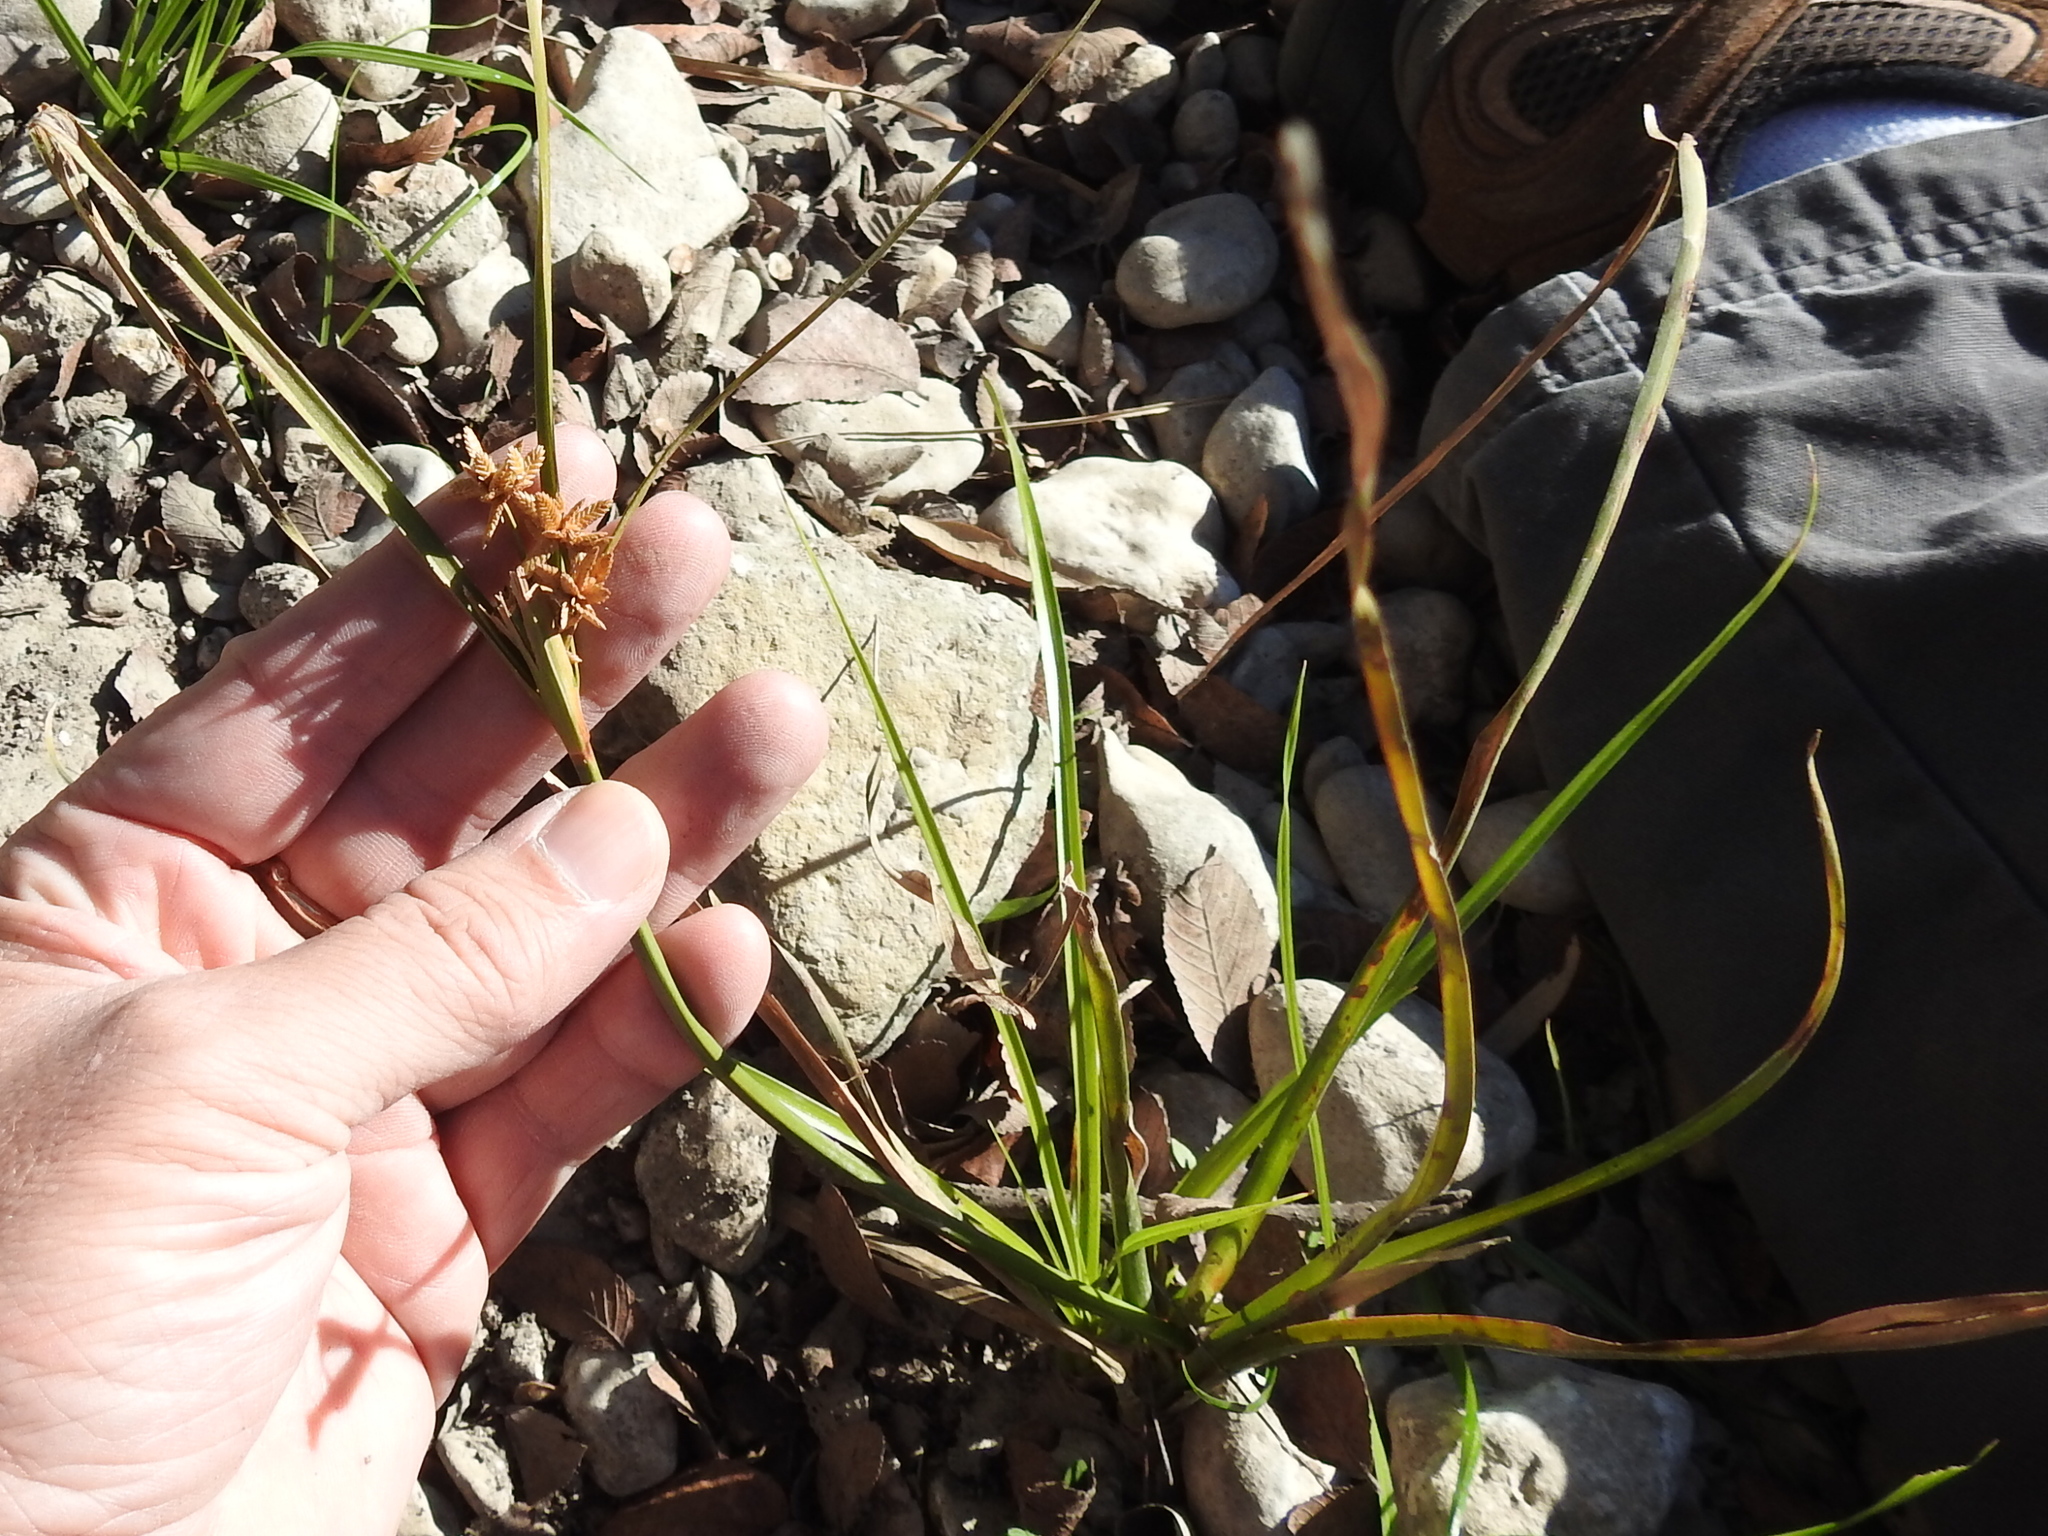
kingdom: Plantae
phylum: Tracheophyta
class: Liliopsida
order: Poales
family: Cyperaceae
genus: Cyperus
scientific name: Cyperus ochraceus
